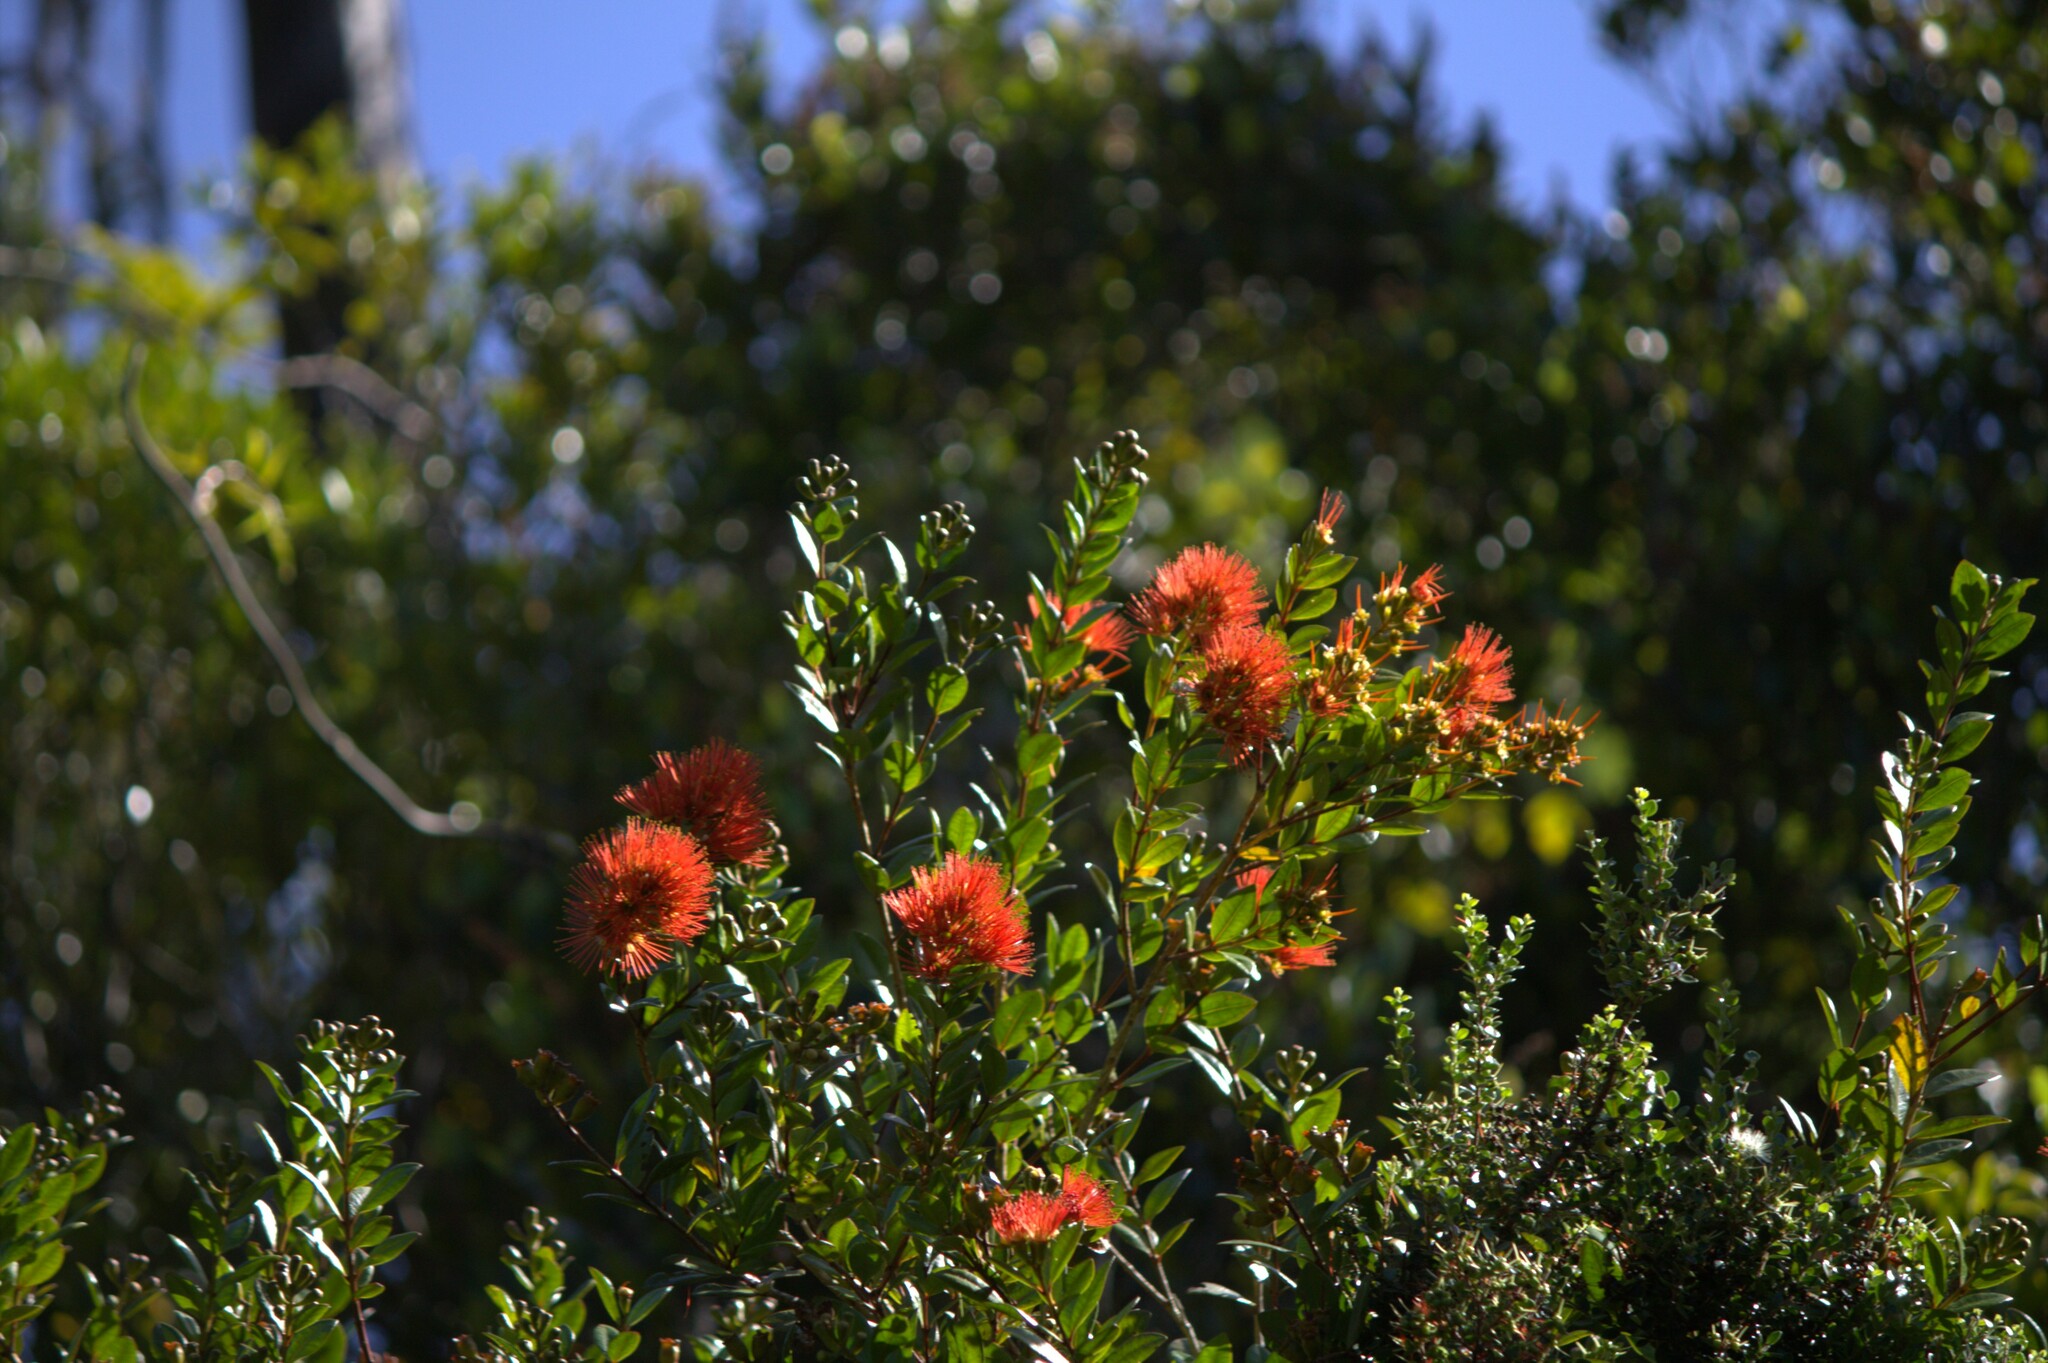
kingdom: Plantae
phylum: Tracheophyta
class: Magnoliopsida
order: Myrtales
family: Myrtaceae
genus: Metrosideros
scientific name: Metrosideros fulgens
